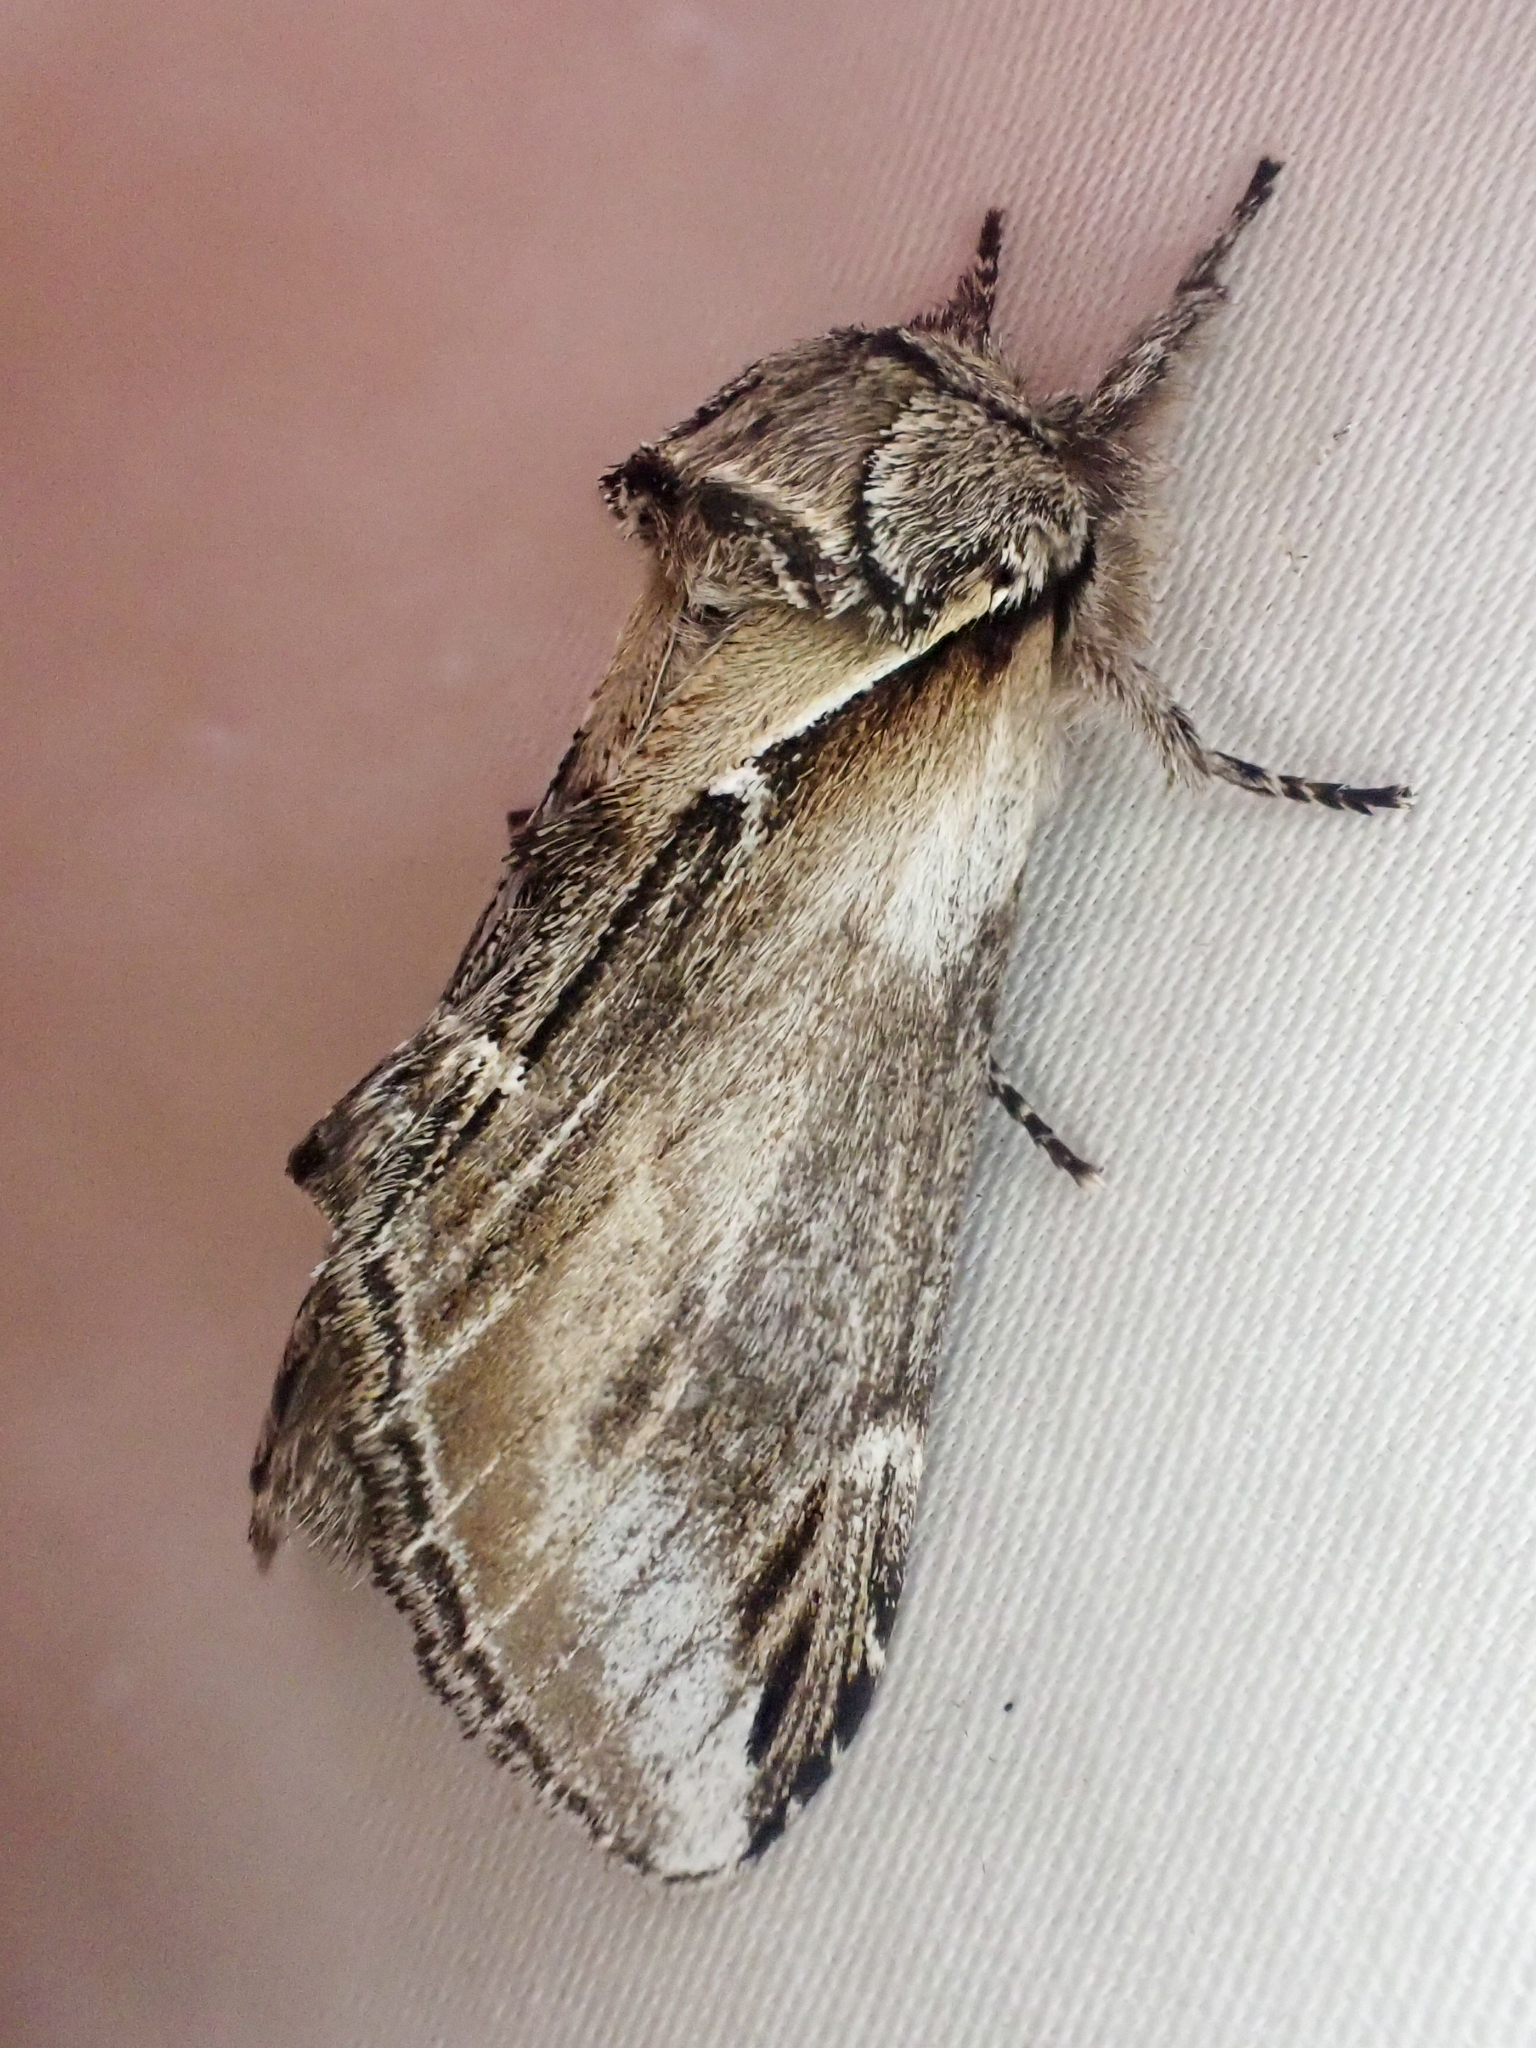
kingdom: Animalia
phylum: Arthropoda
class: Insecta
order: Lepidoptera
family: Notodontidae
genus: Pheosia
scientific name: Pheosia rimosa
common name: Black-rimmed prominent
